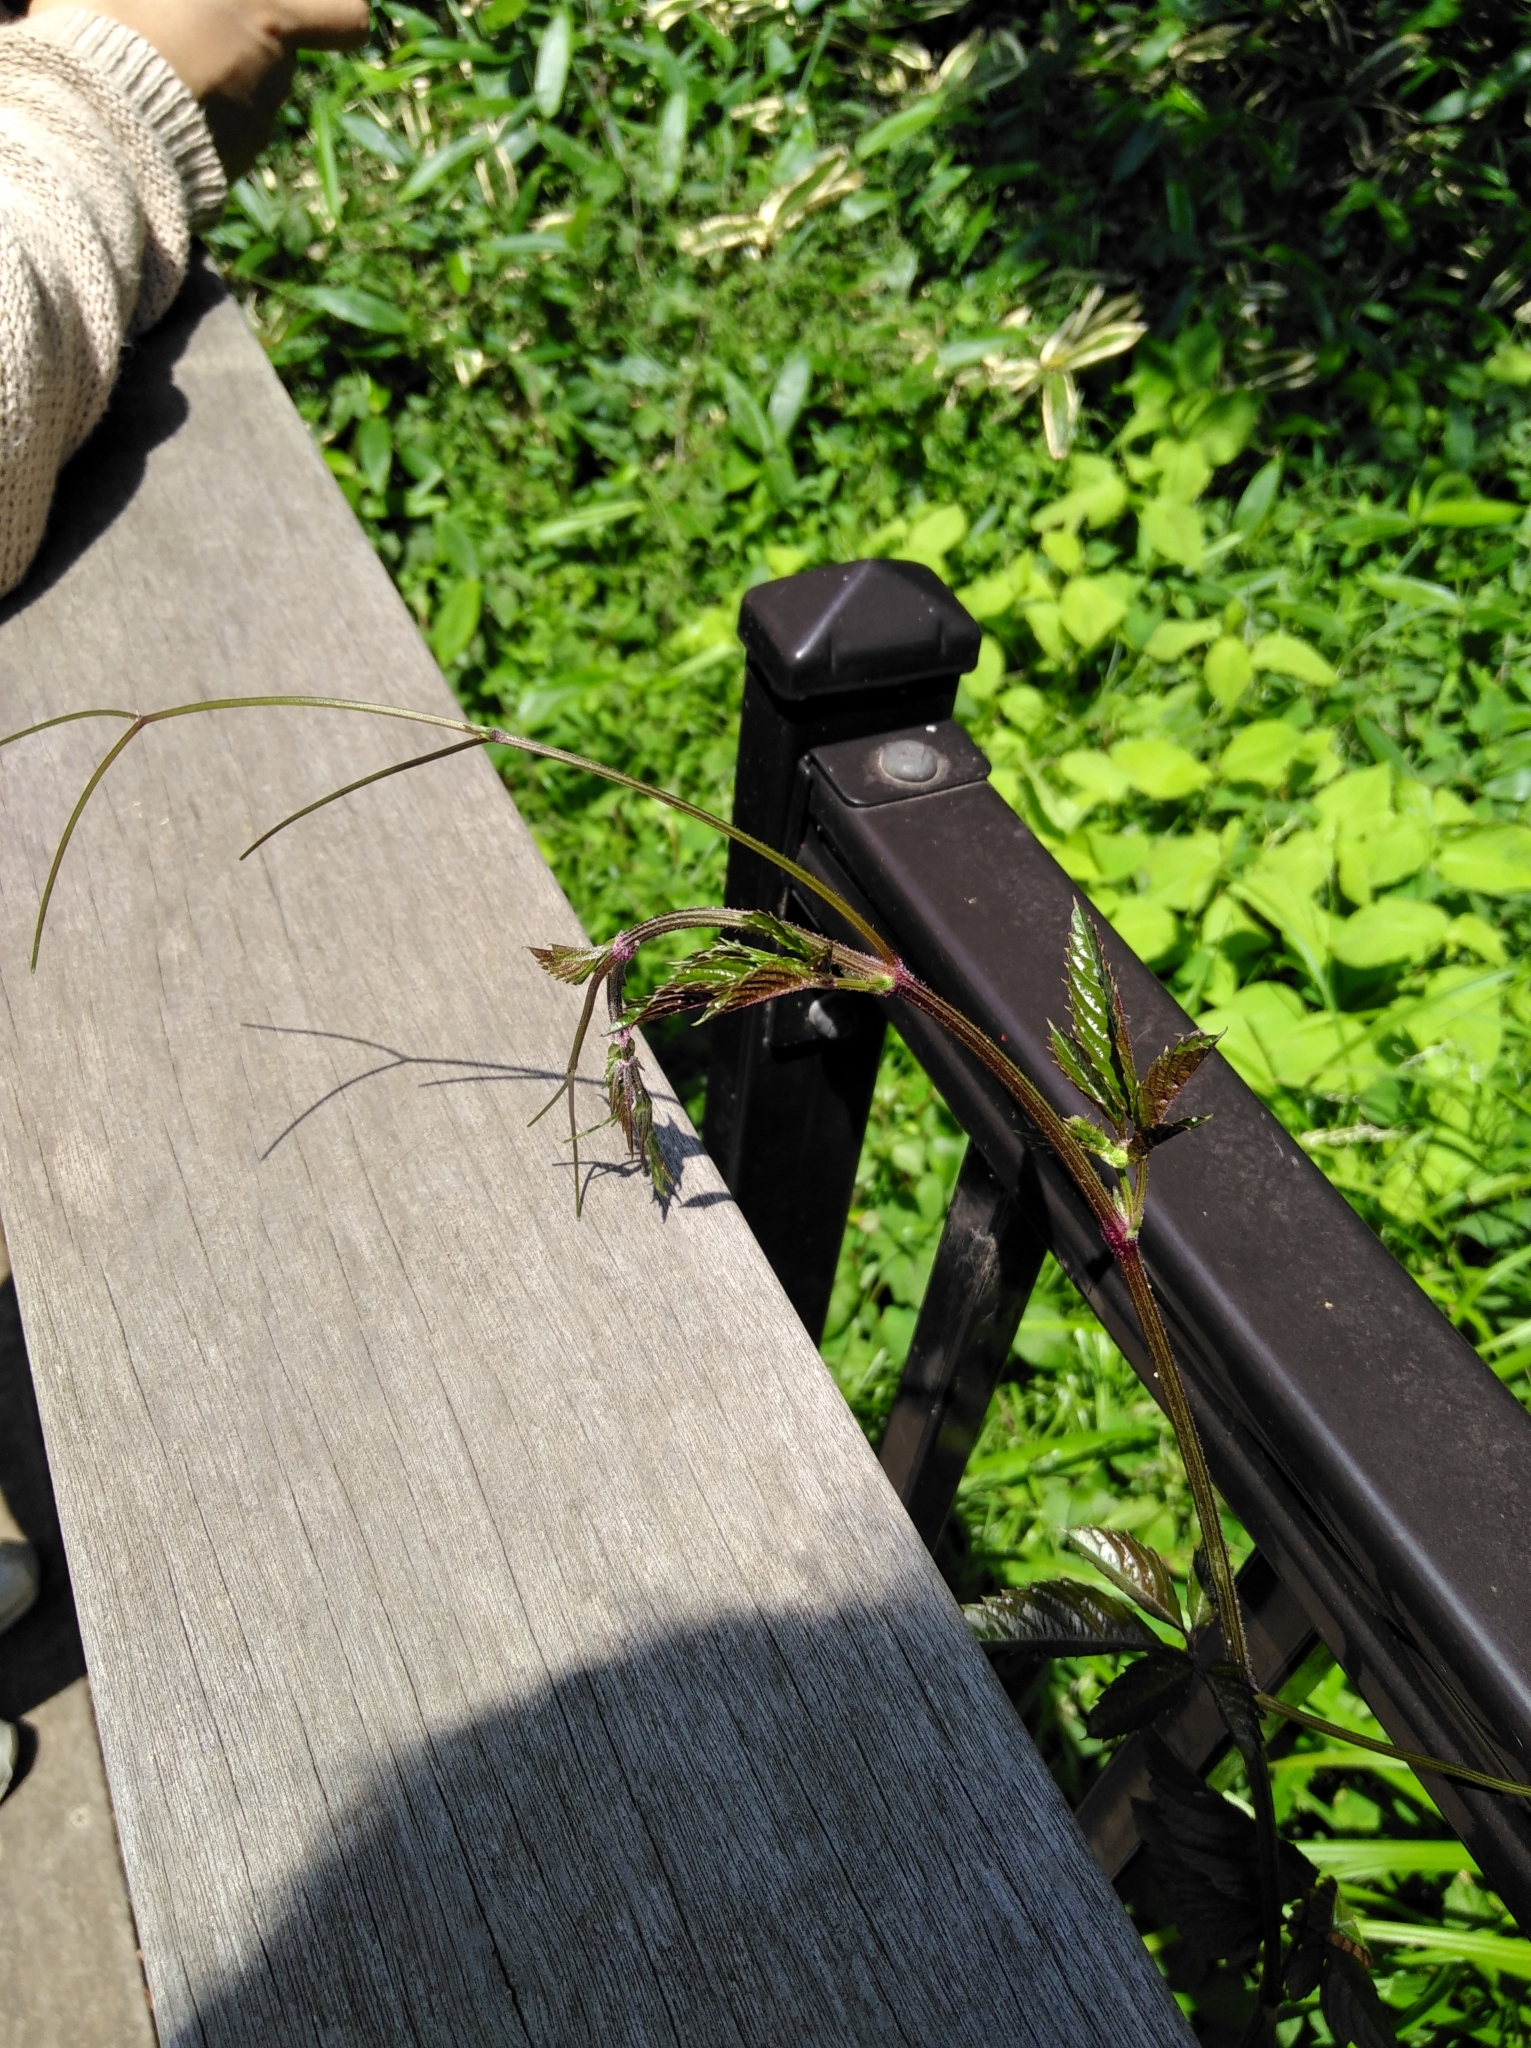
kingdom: Plantae
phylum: Tracheophyta
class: Magnoliopsida
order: Vitales
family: Vitaceae
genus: Causonis
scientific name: Causonis japonica
